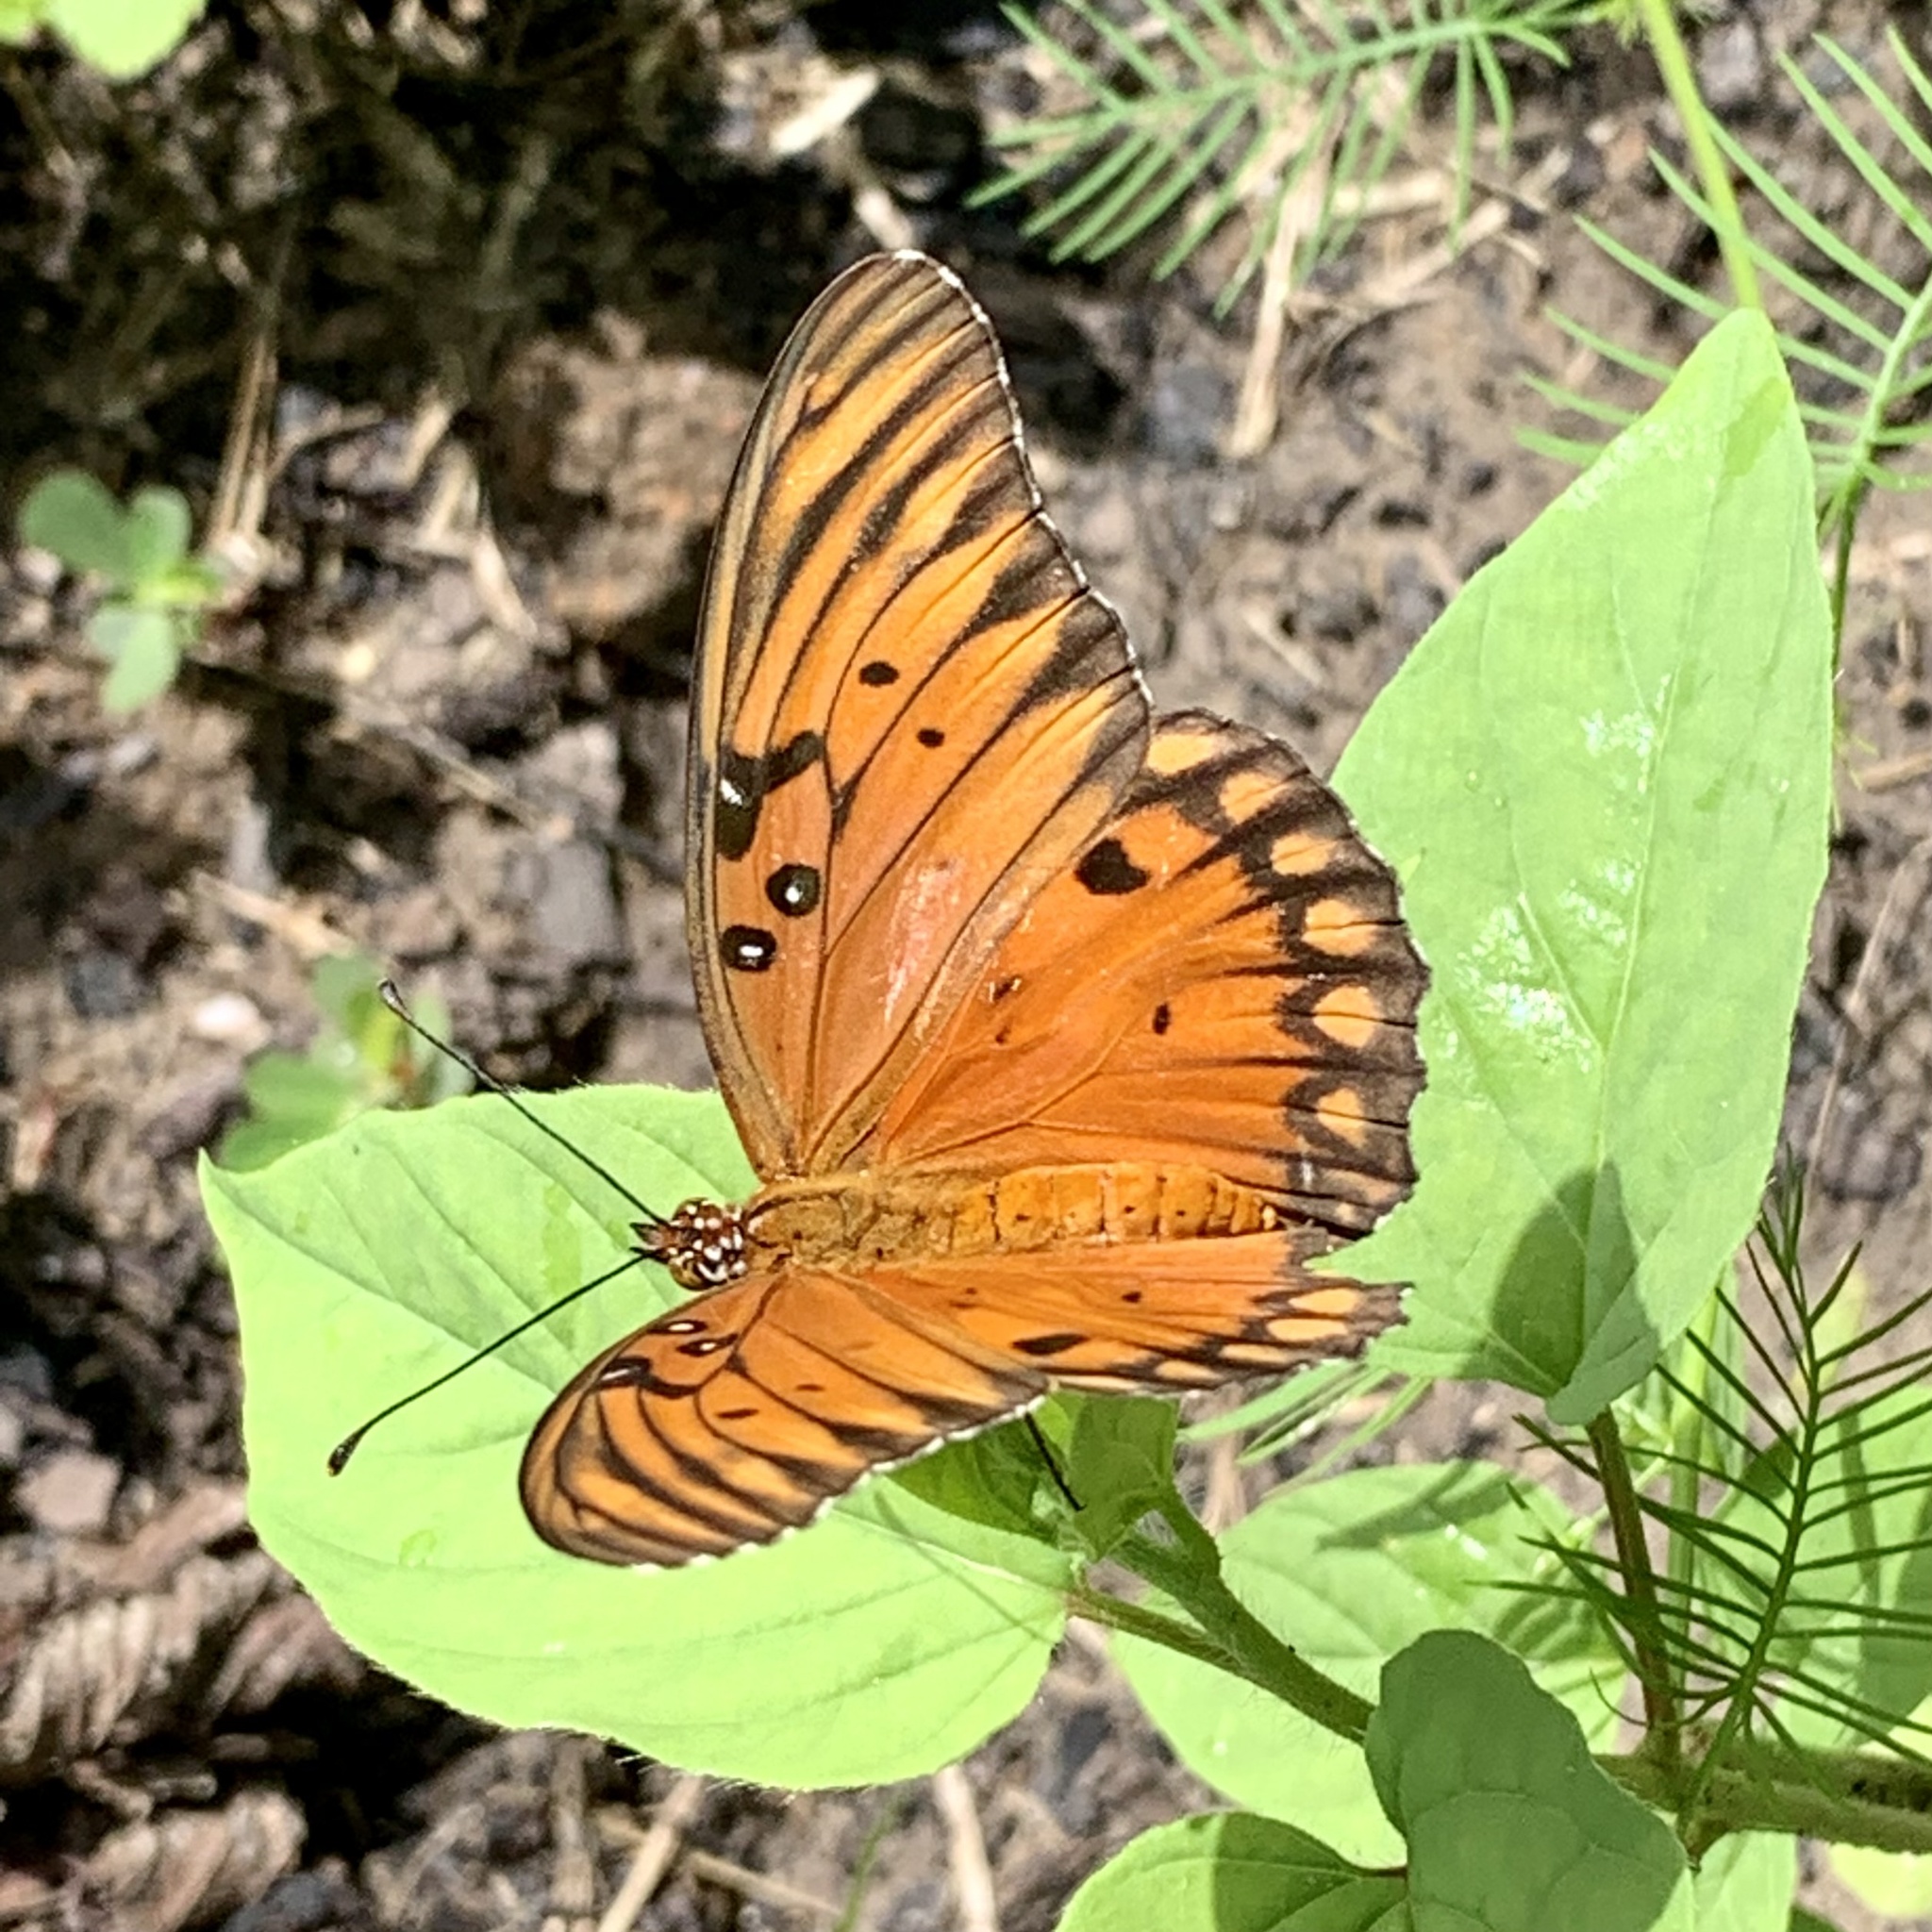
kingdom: Animalia
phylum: Arthropoda
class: Insecta
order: Lepidoptera
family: Nymphalidae
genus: Dione
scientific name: Dione vanillae
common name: Gulf fritillary
